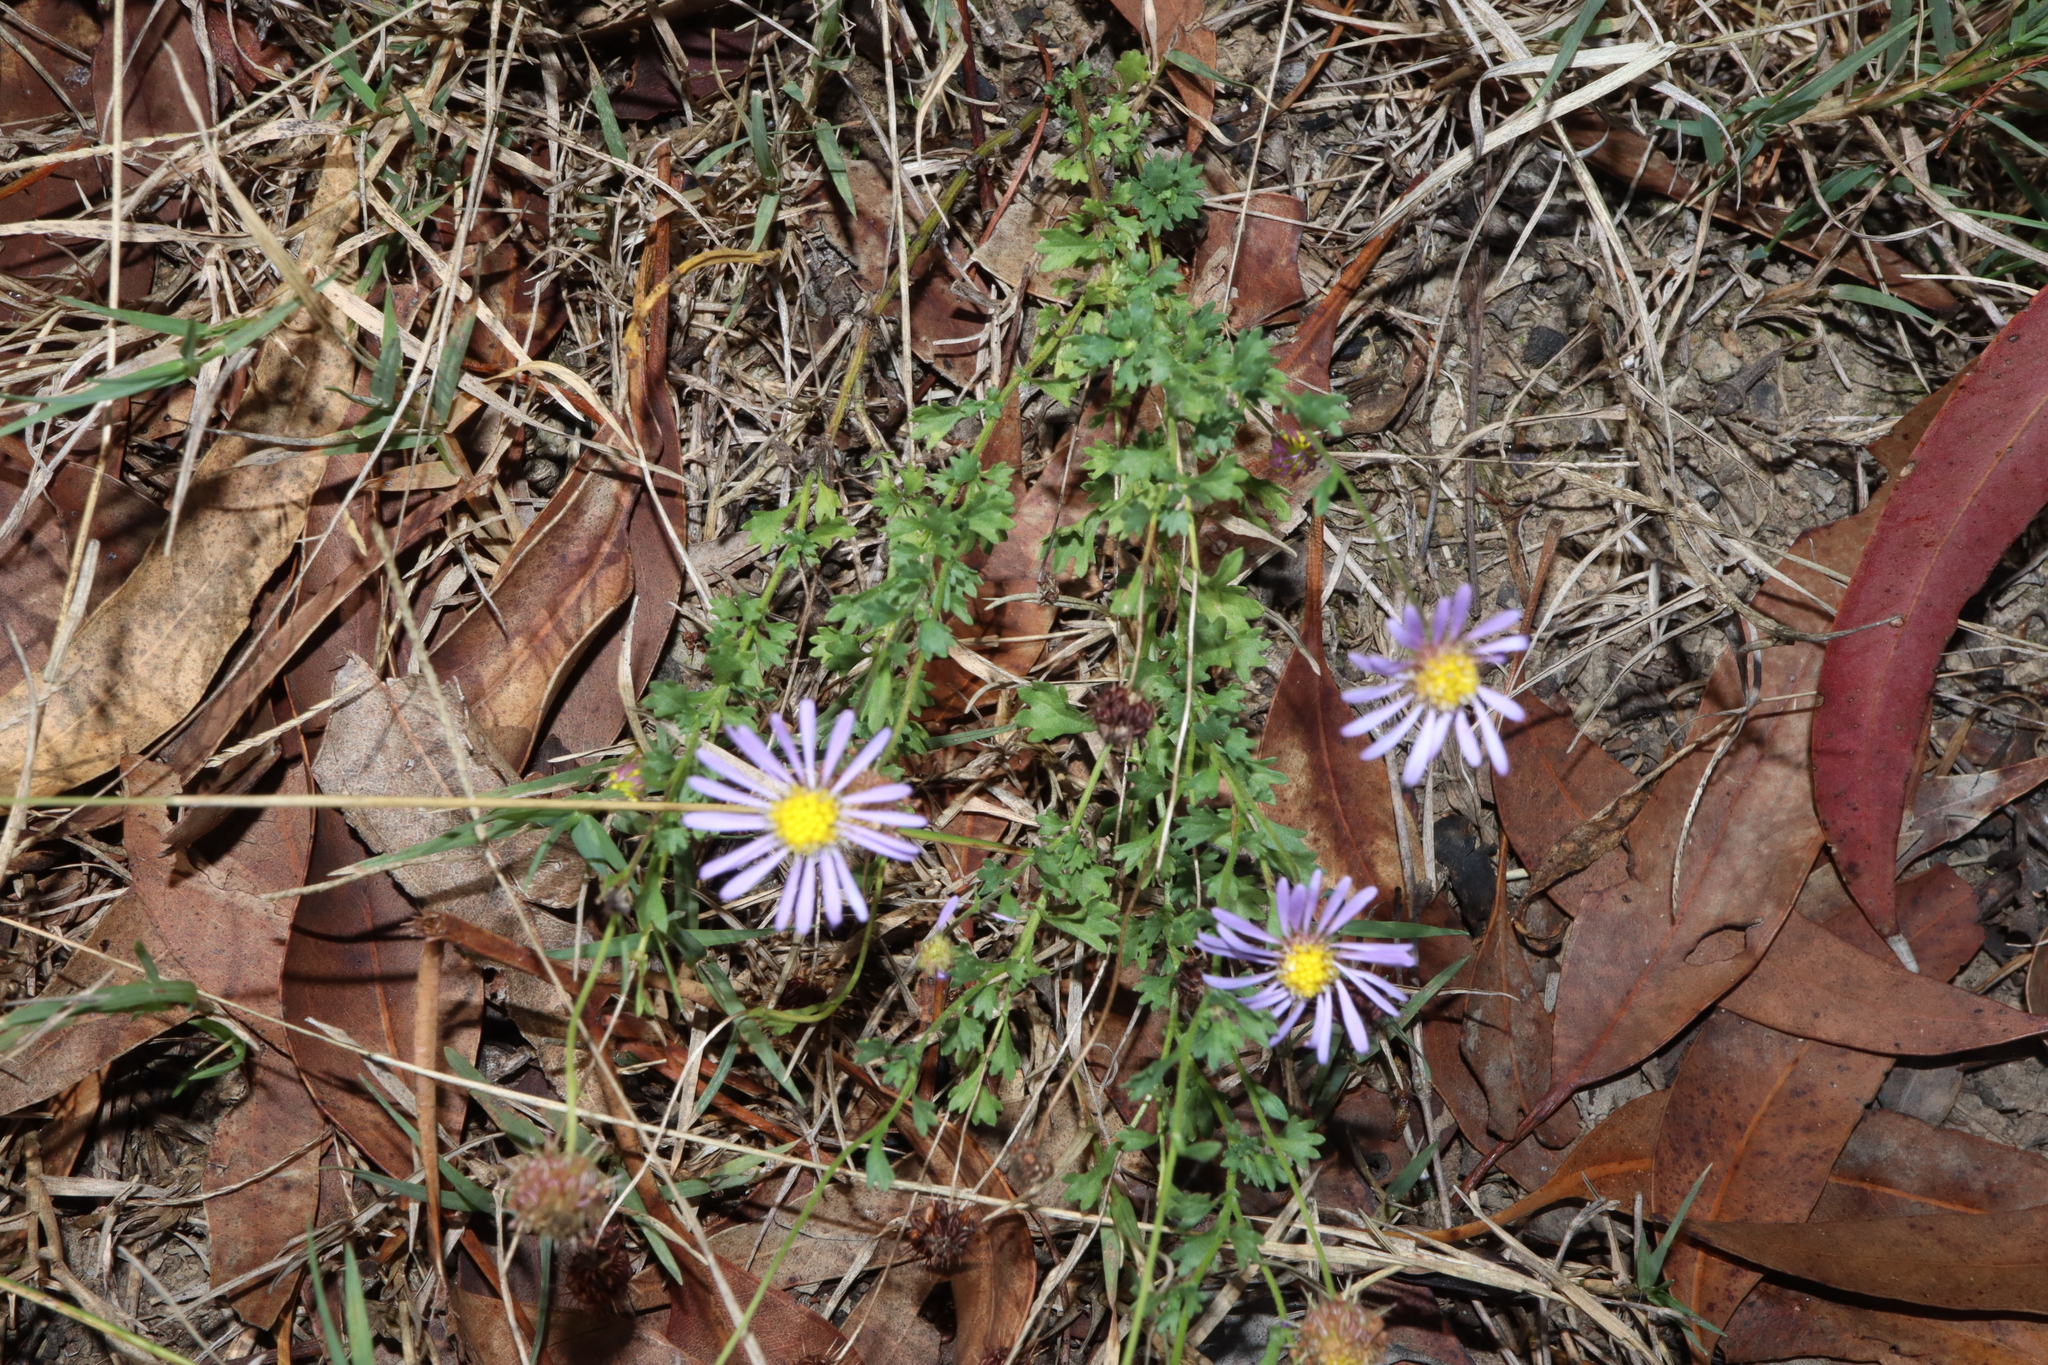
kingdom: Plantae
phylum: Tracheophyta
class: Magnoliopsida
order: Asterales
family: Asteraceae
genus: Calotis
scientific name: Calotis cuneifolia
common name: Bur-daisy
